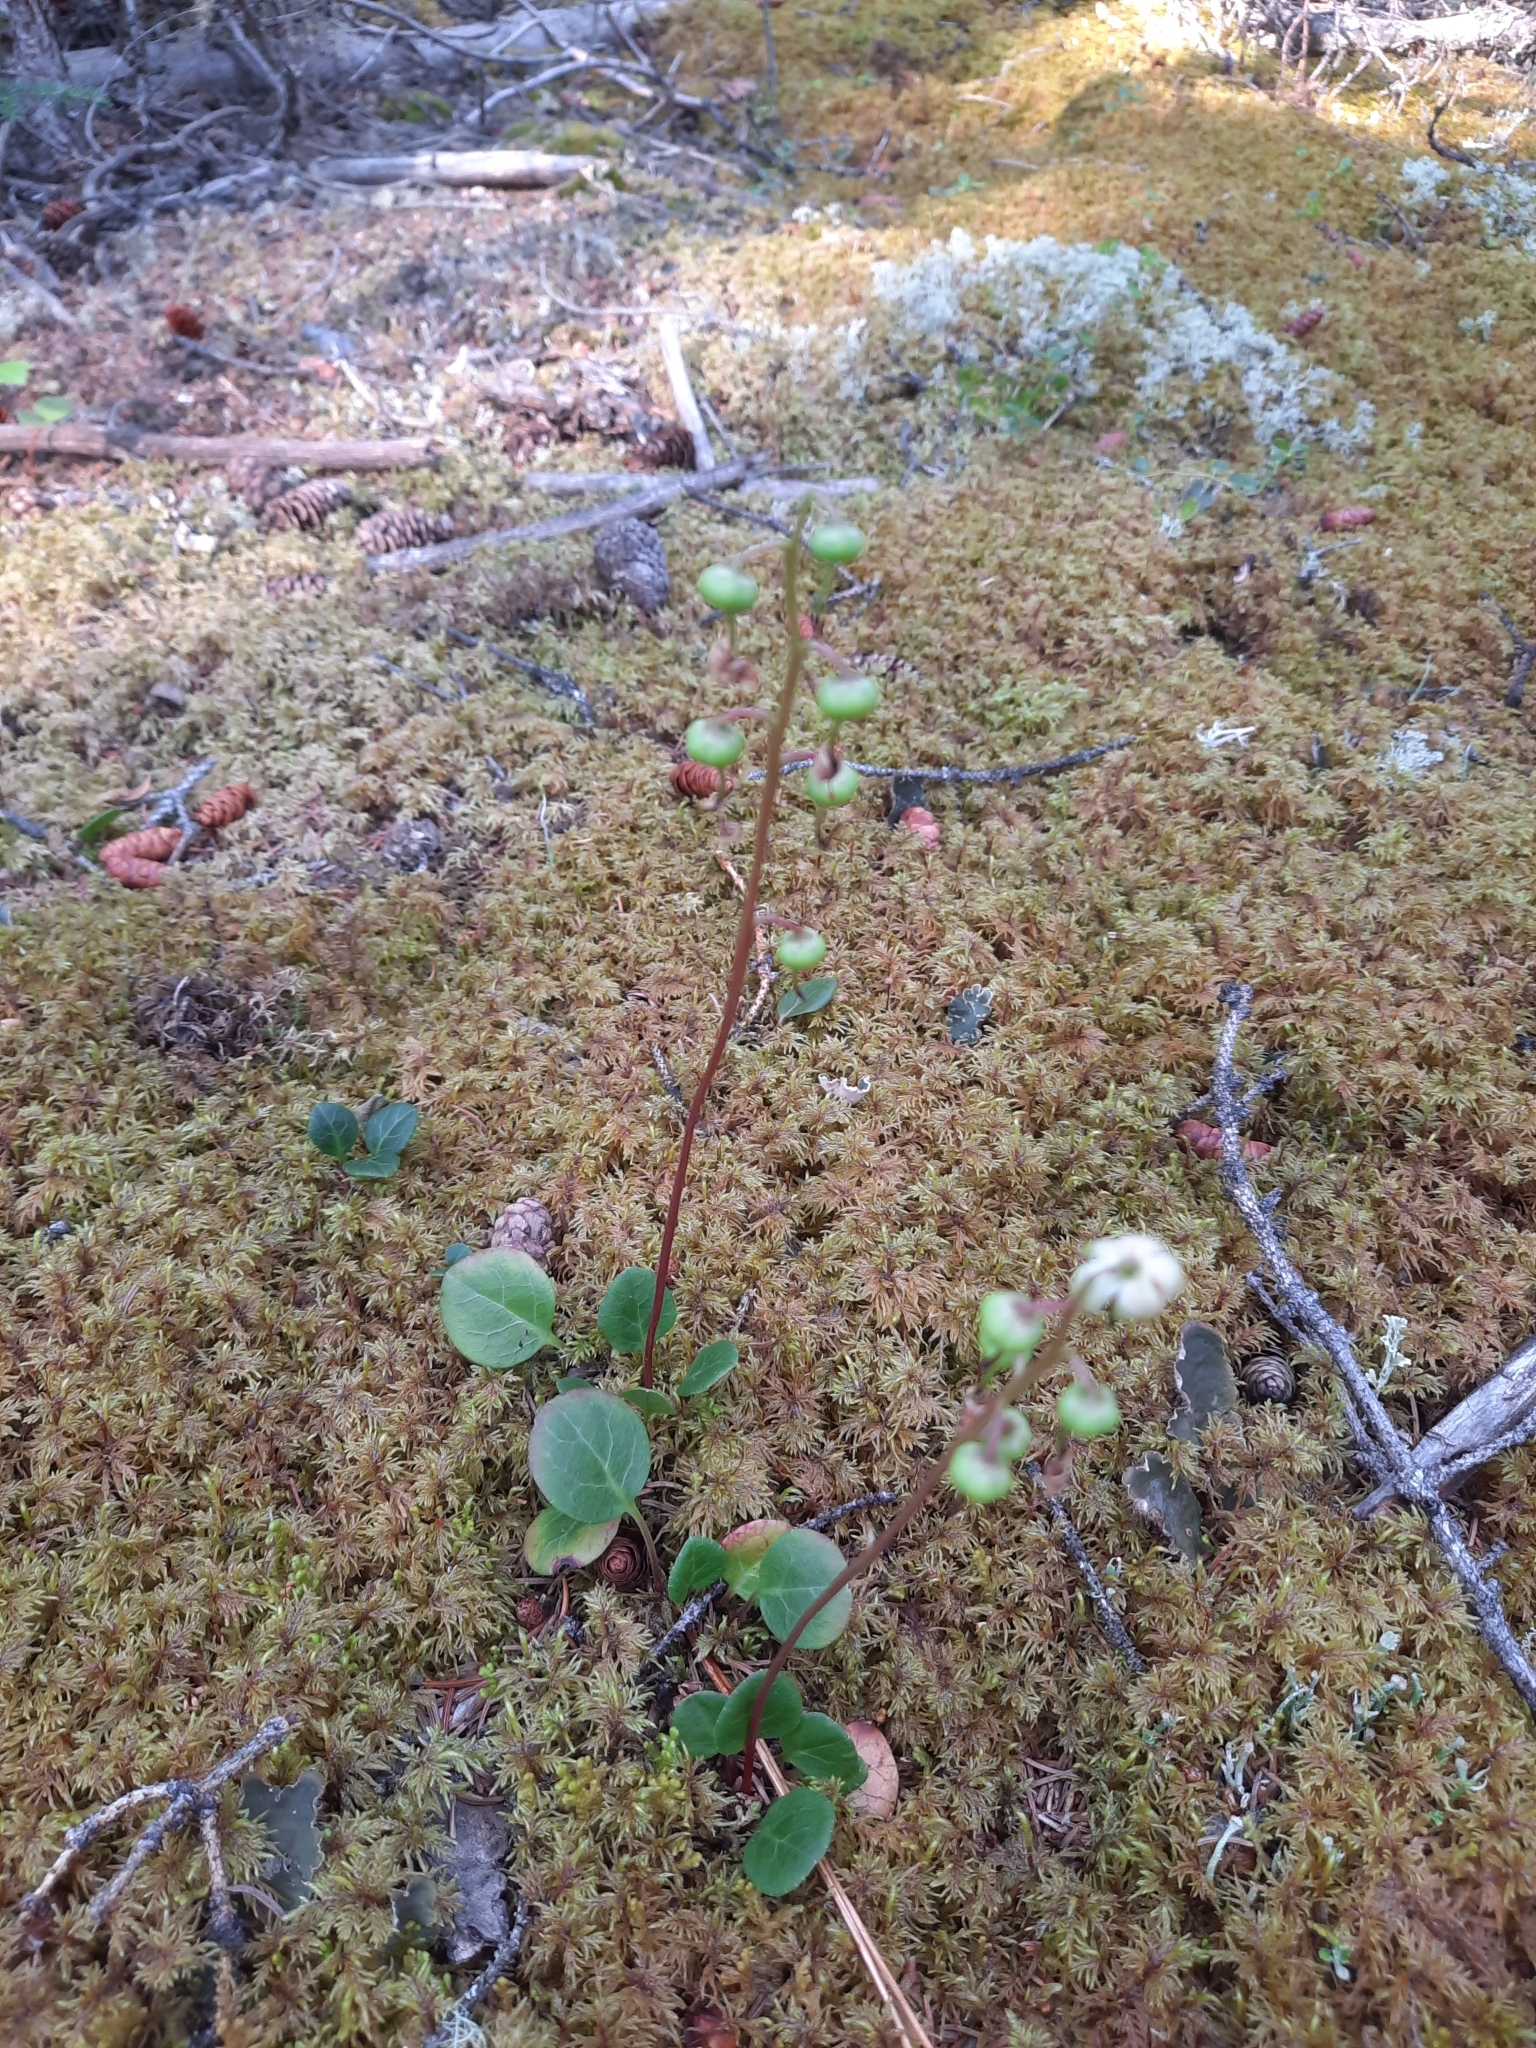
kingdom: Plantae
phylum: Tracheophyta
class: Magnoliopsida
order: Ericales
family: Ericaceae
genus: Pyrola
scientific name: Pyrola chlorantha
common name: Green wintergreen
